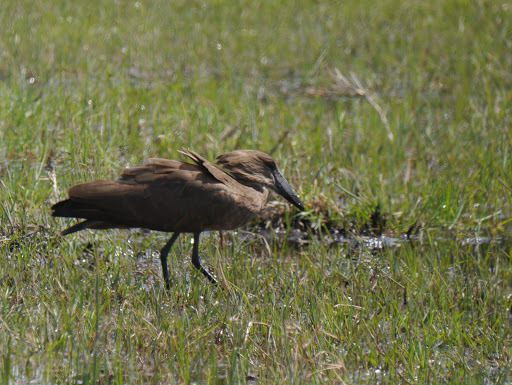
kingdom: Animalia
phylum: Chordata
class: Aves
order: Pelecaniformes
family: Scopidae
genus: Scopus
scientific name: Scopus umbretta
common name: Hamerkop
